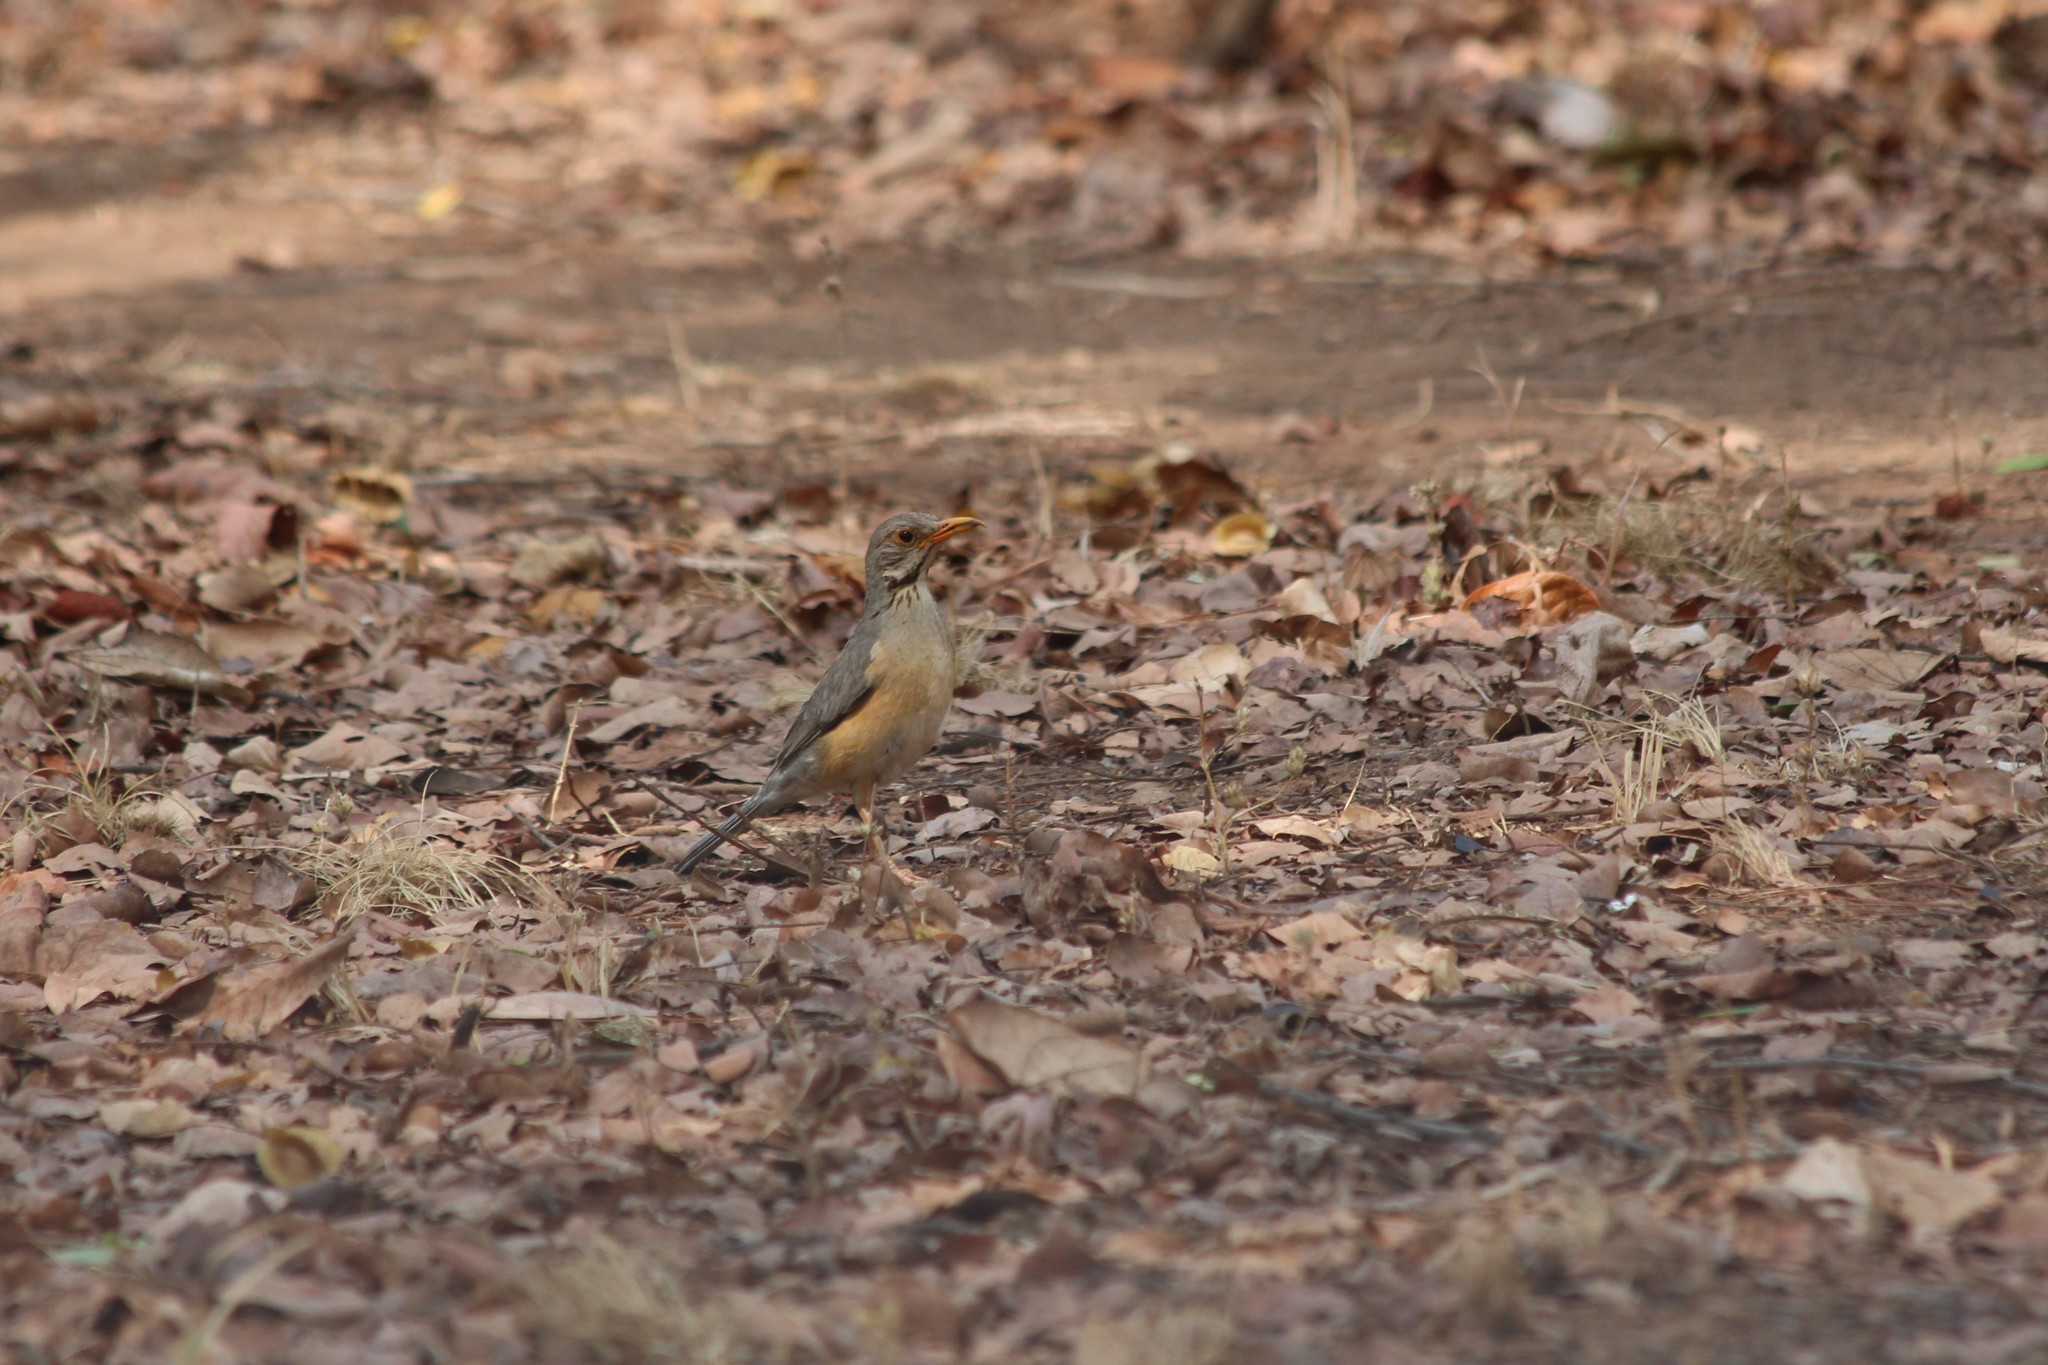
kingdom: Animalia
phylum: Chordata
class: Aves
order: Passeriformes
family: Turdidae
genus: Turdus
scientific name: Turdus libonyana
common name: Kurrichane thrush
